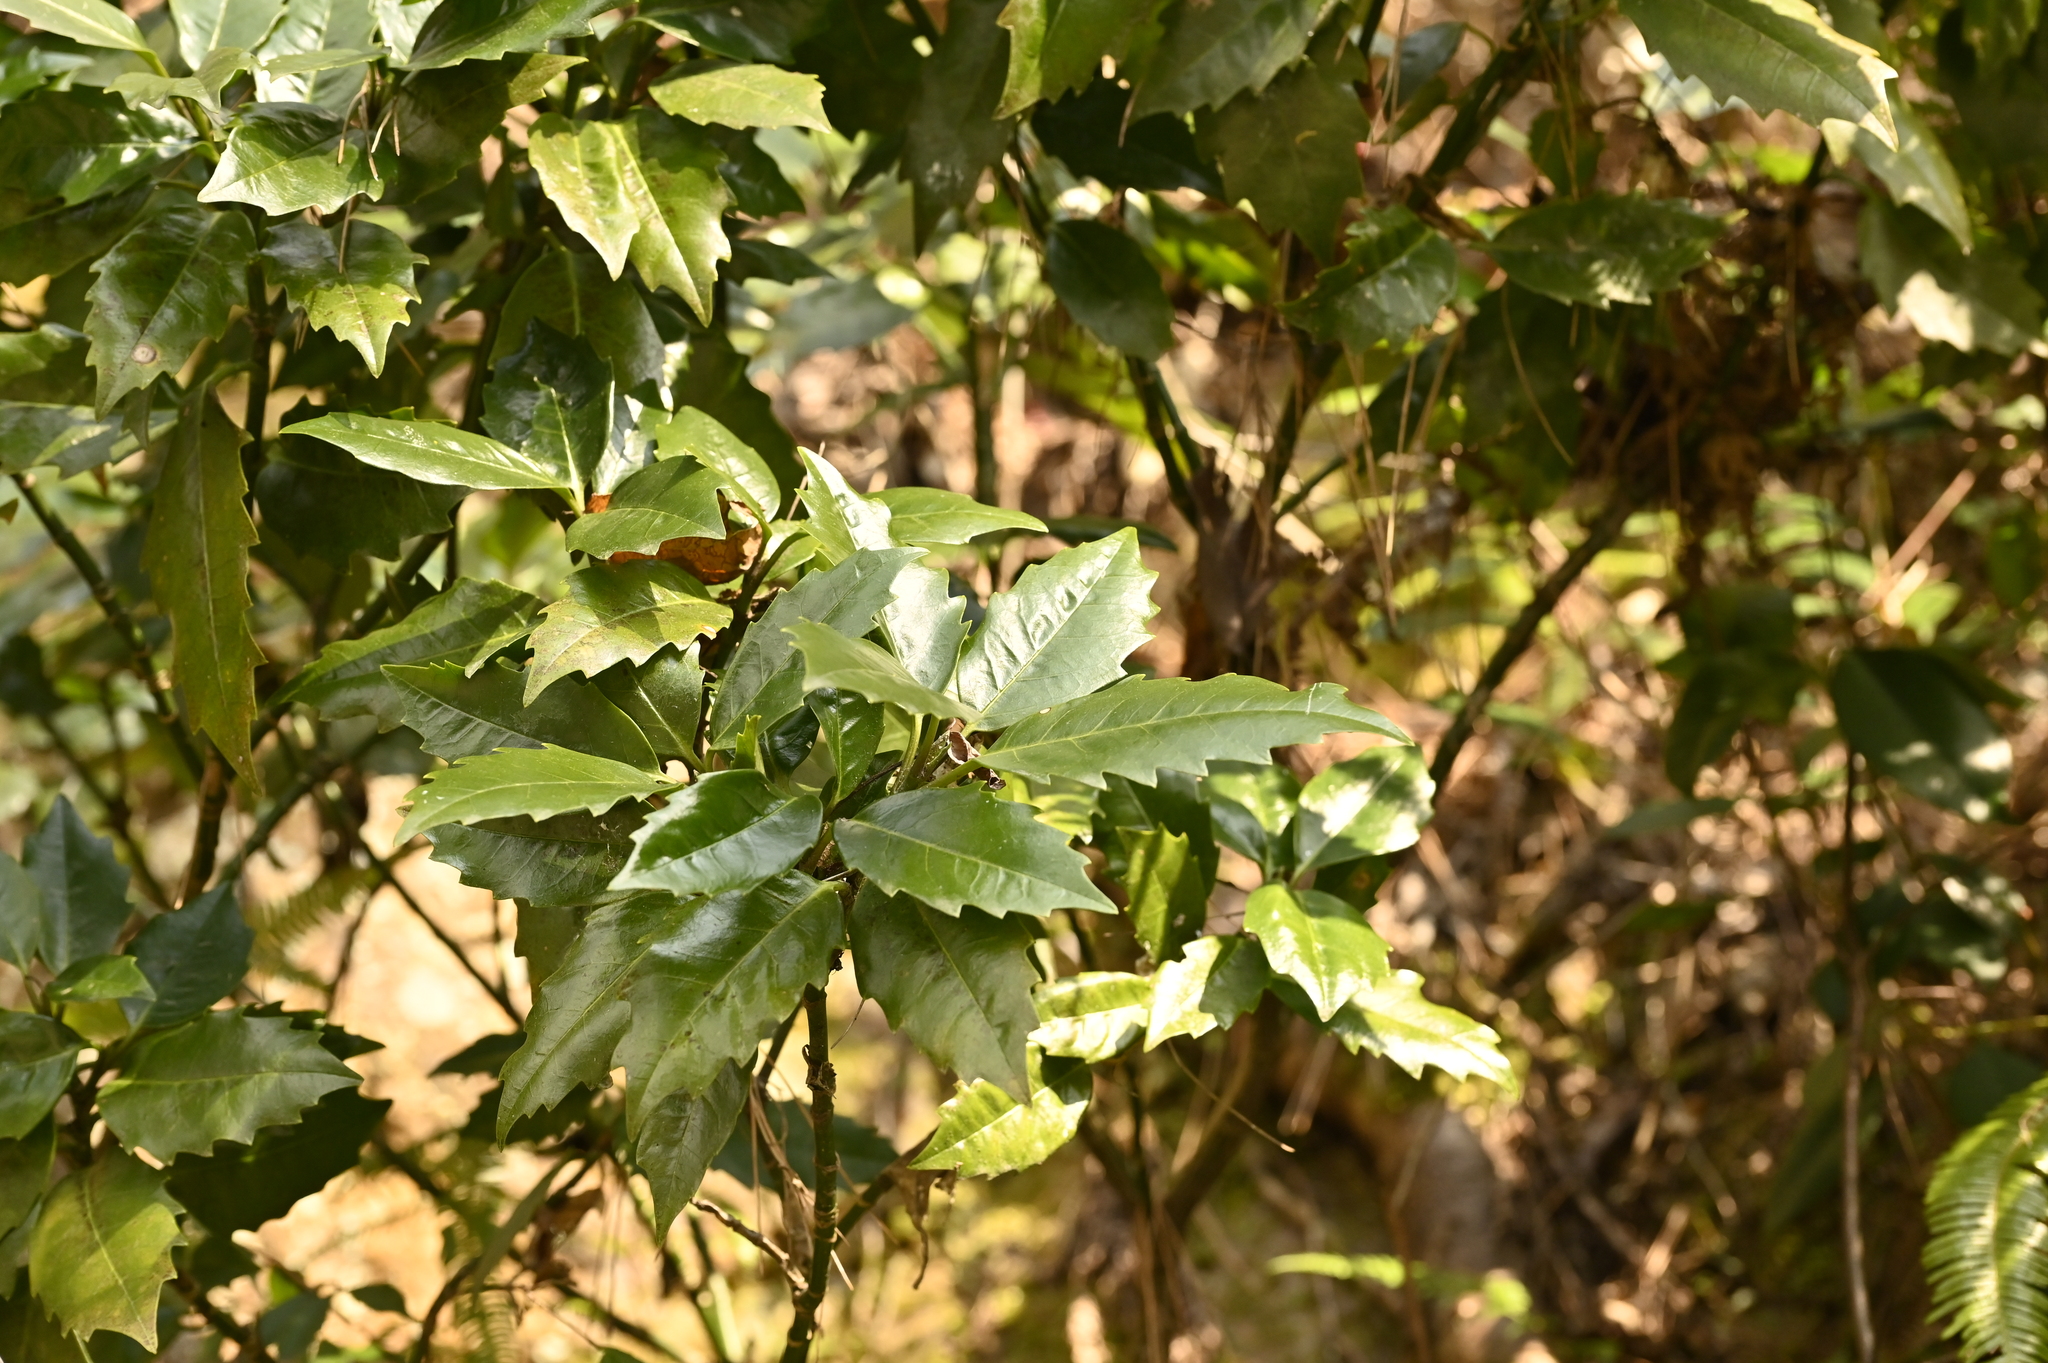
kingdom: Plantae
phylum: Tracheophyta
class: Magnoliopsida
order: Garryales
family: Garryaceae
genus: Aucuba
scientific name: Aucuba japonica
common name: Spotted-laurel
